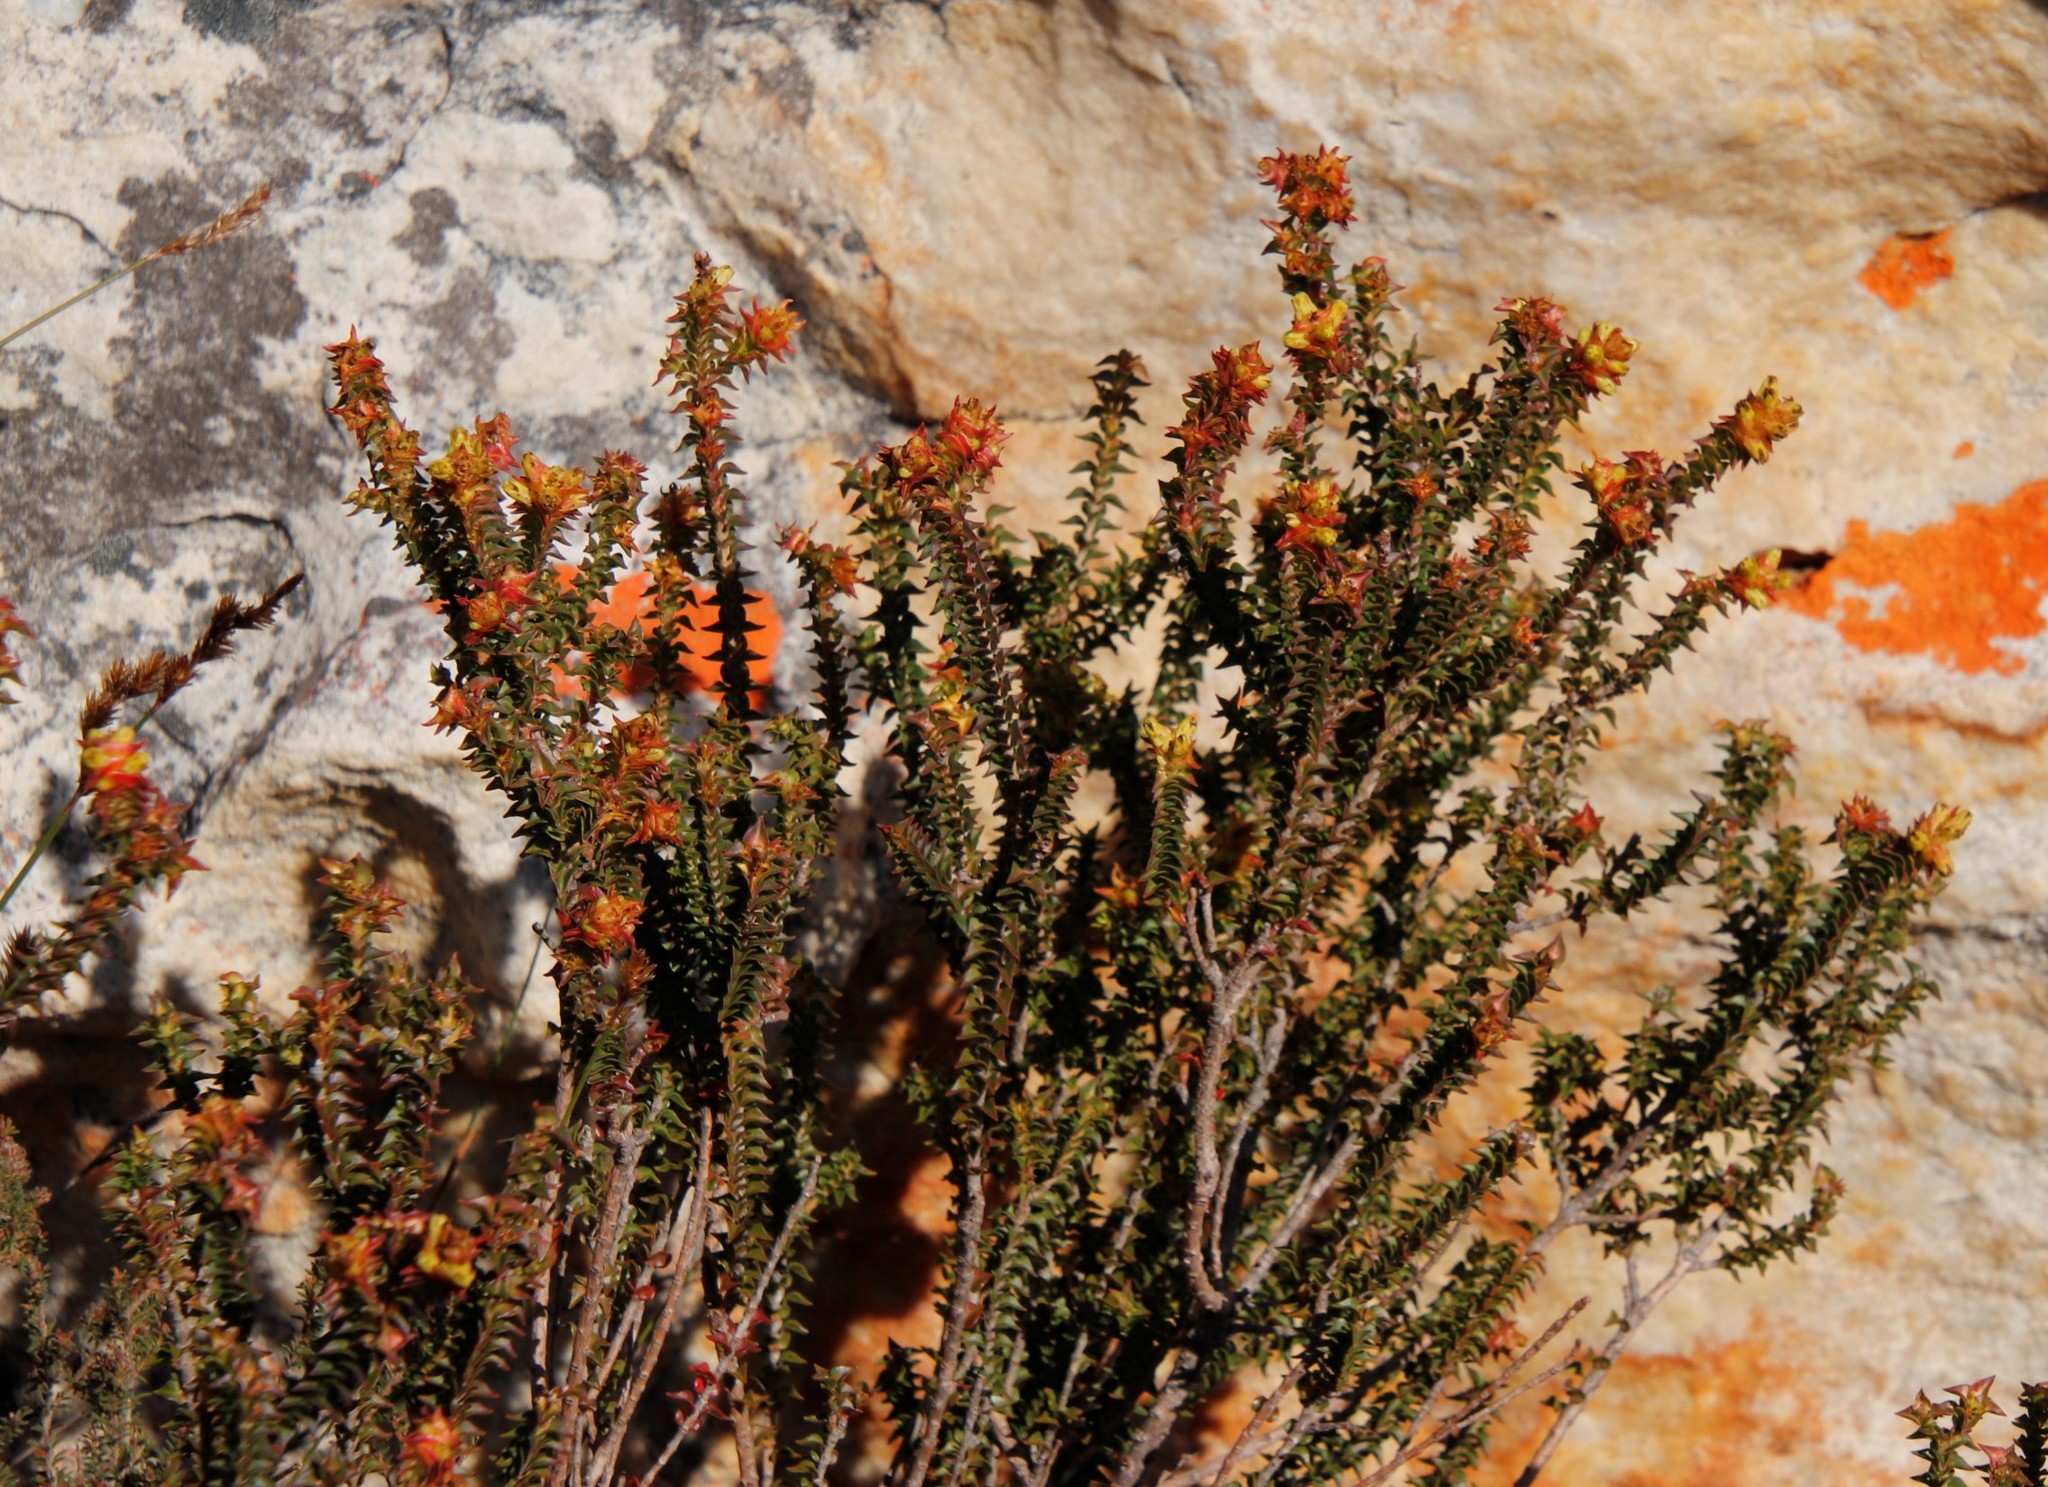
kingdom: Plantae
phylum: Tracheophyta
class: Magnoliopsida
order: Myrtales
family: Penaeaceae
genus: Penaea
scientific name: Penaea mucronata
